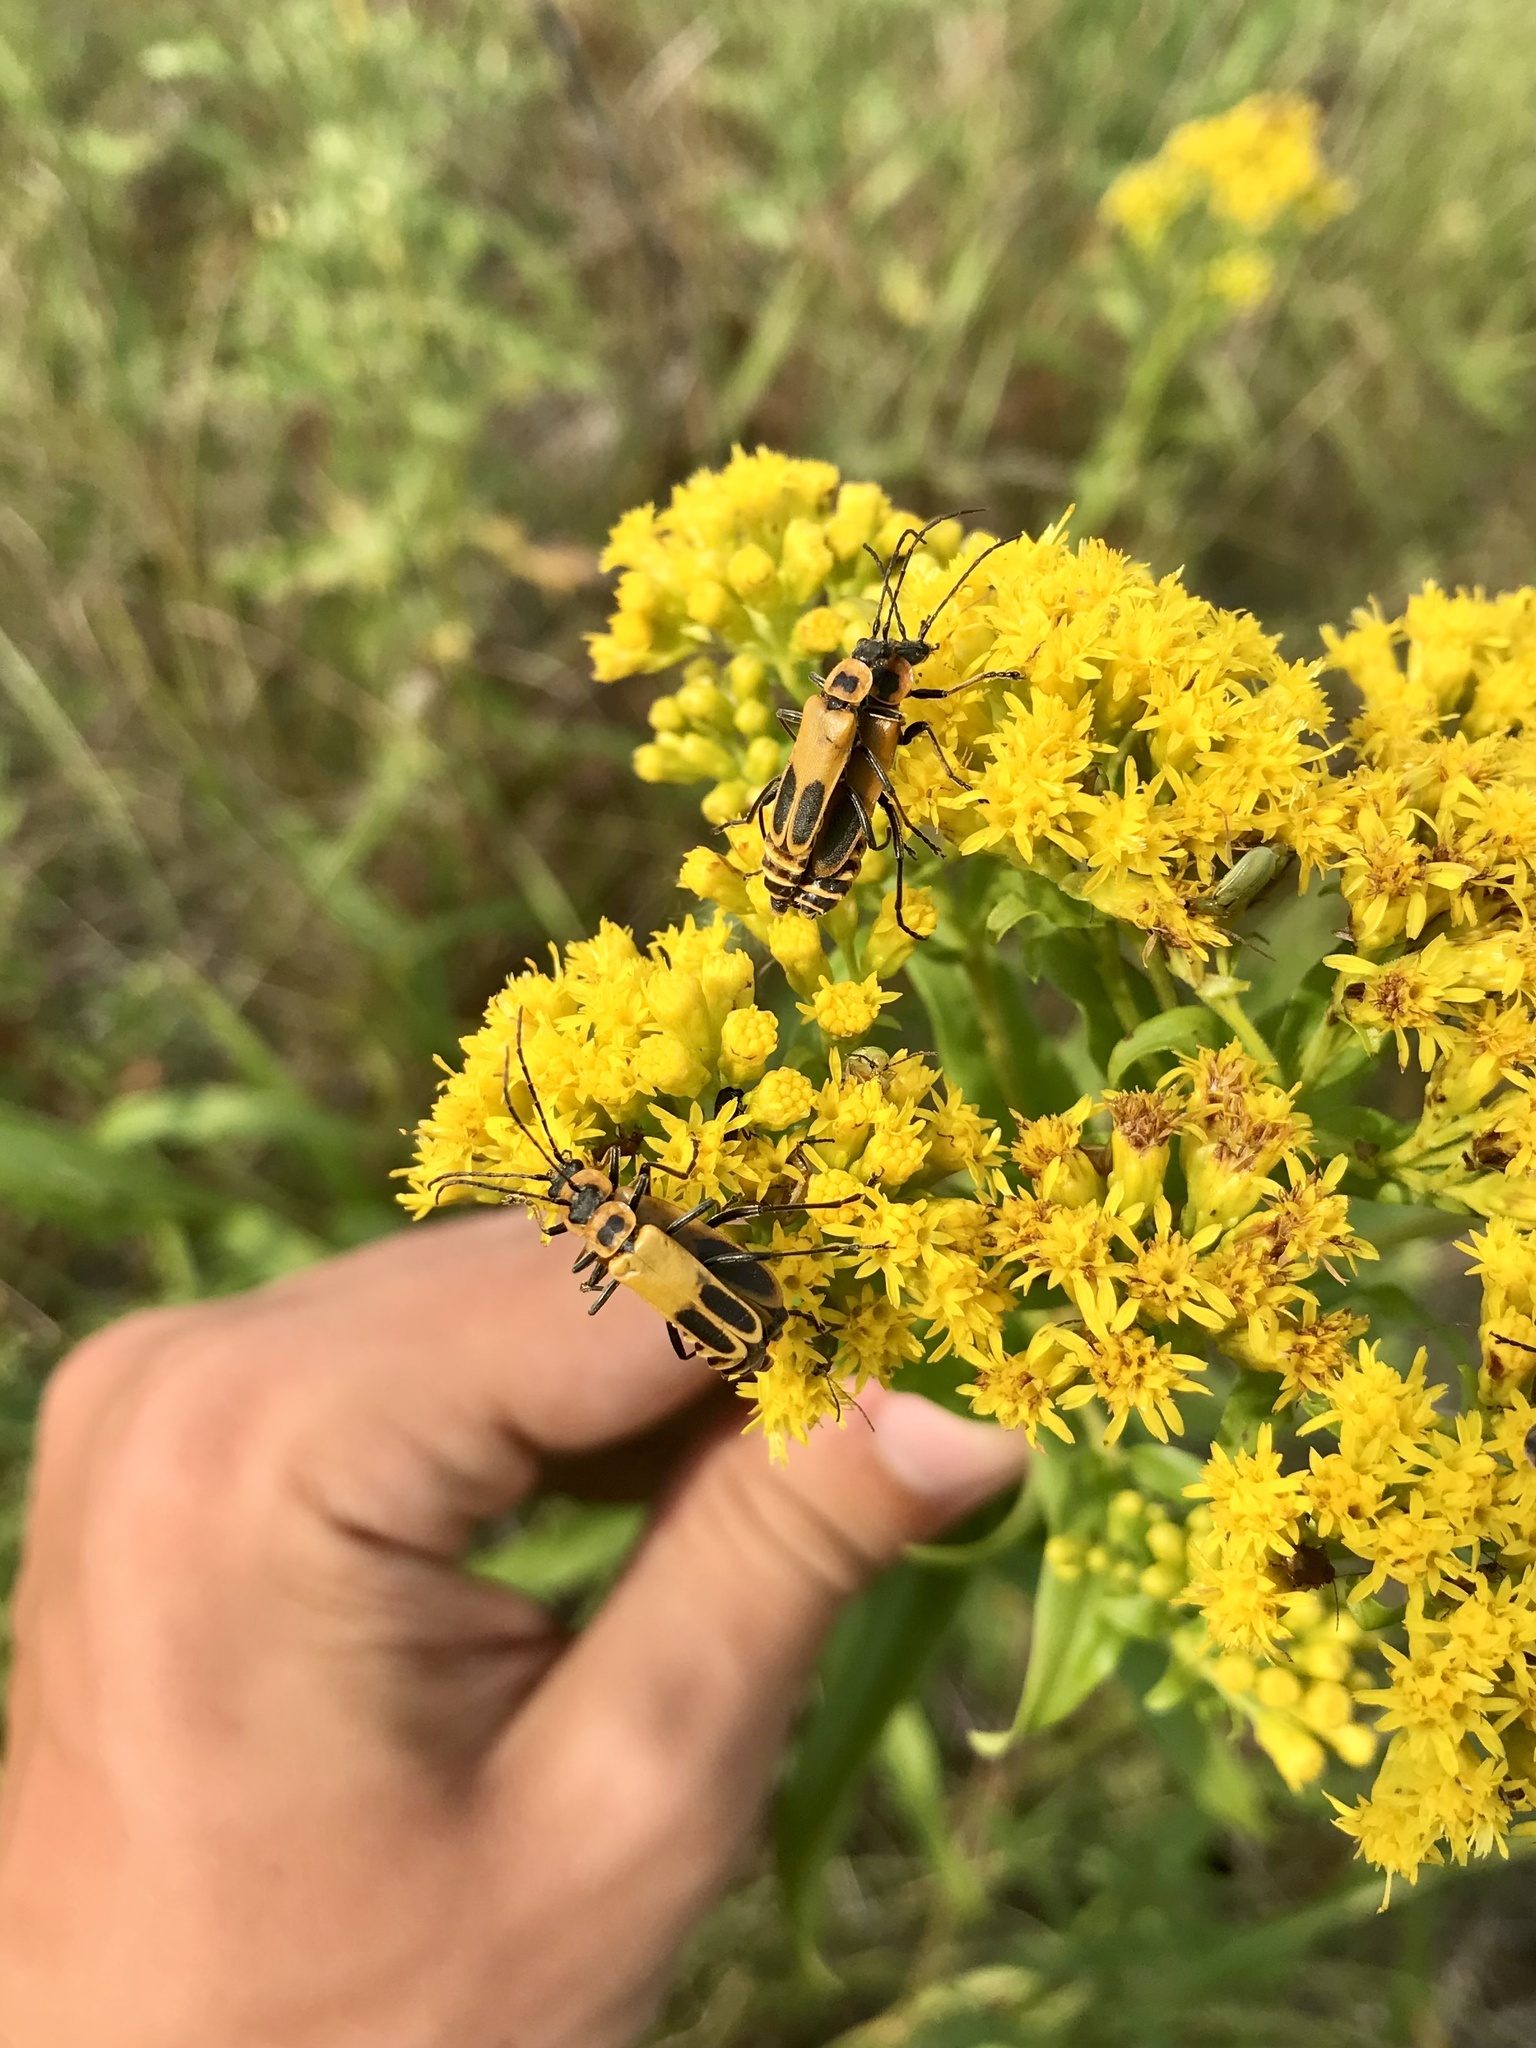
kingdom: Animalia
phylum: Arthropoda
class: Insecta
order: Coleoptera
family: Cantharidae
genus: Chauliognathus
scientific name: Chauliognathus pensylvanicus
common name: Goldenrod soldier beetle
